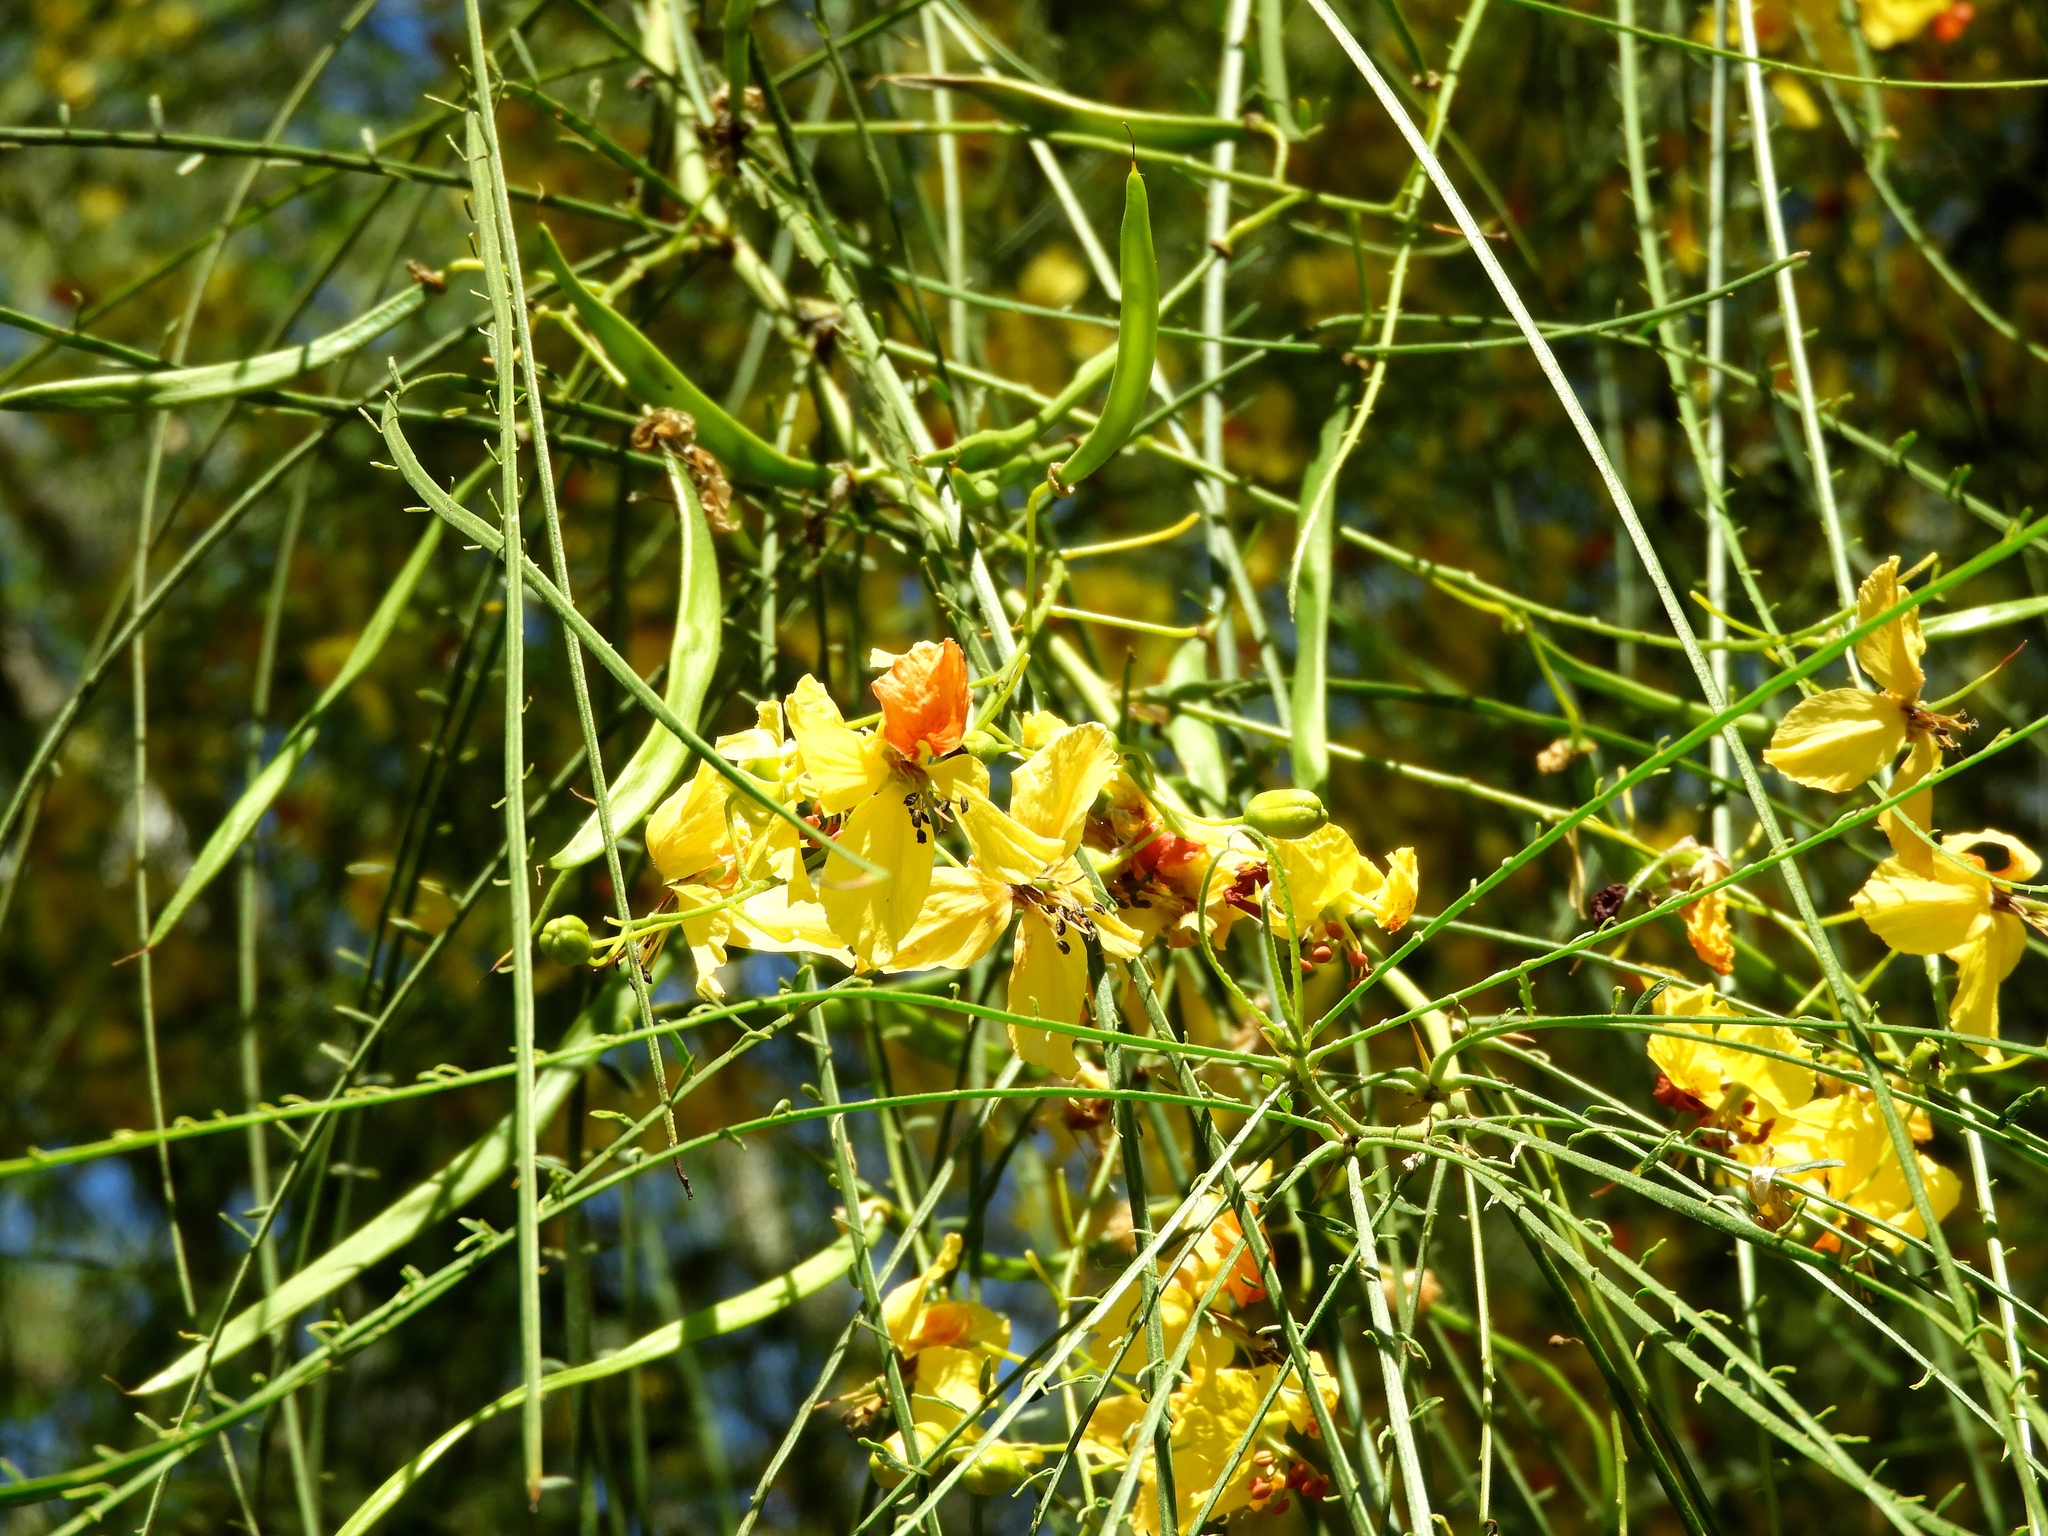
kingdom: Plantae
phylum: Tracheophyta
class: Magnoliopsida
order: Fabales
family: Fabaceae
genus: Parkinsonia
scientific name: Parkinsonia aculeata
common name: Jerusalem thorn
